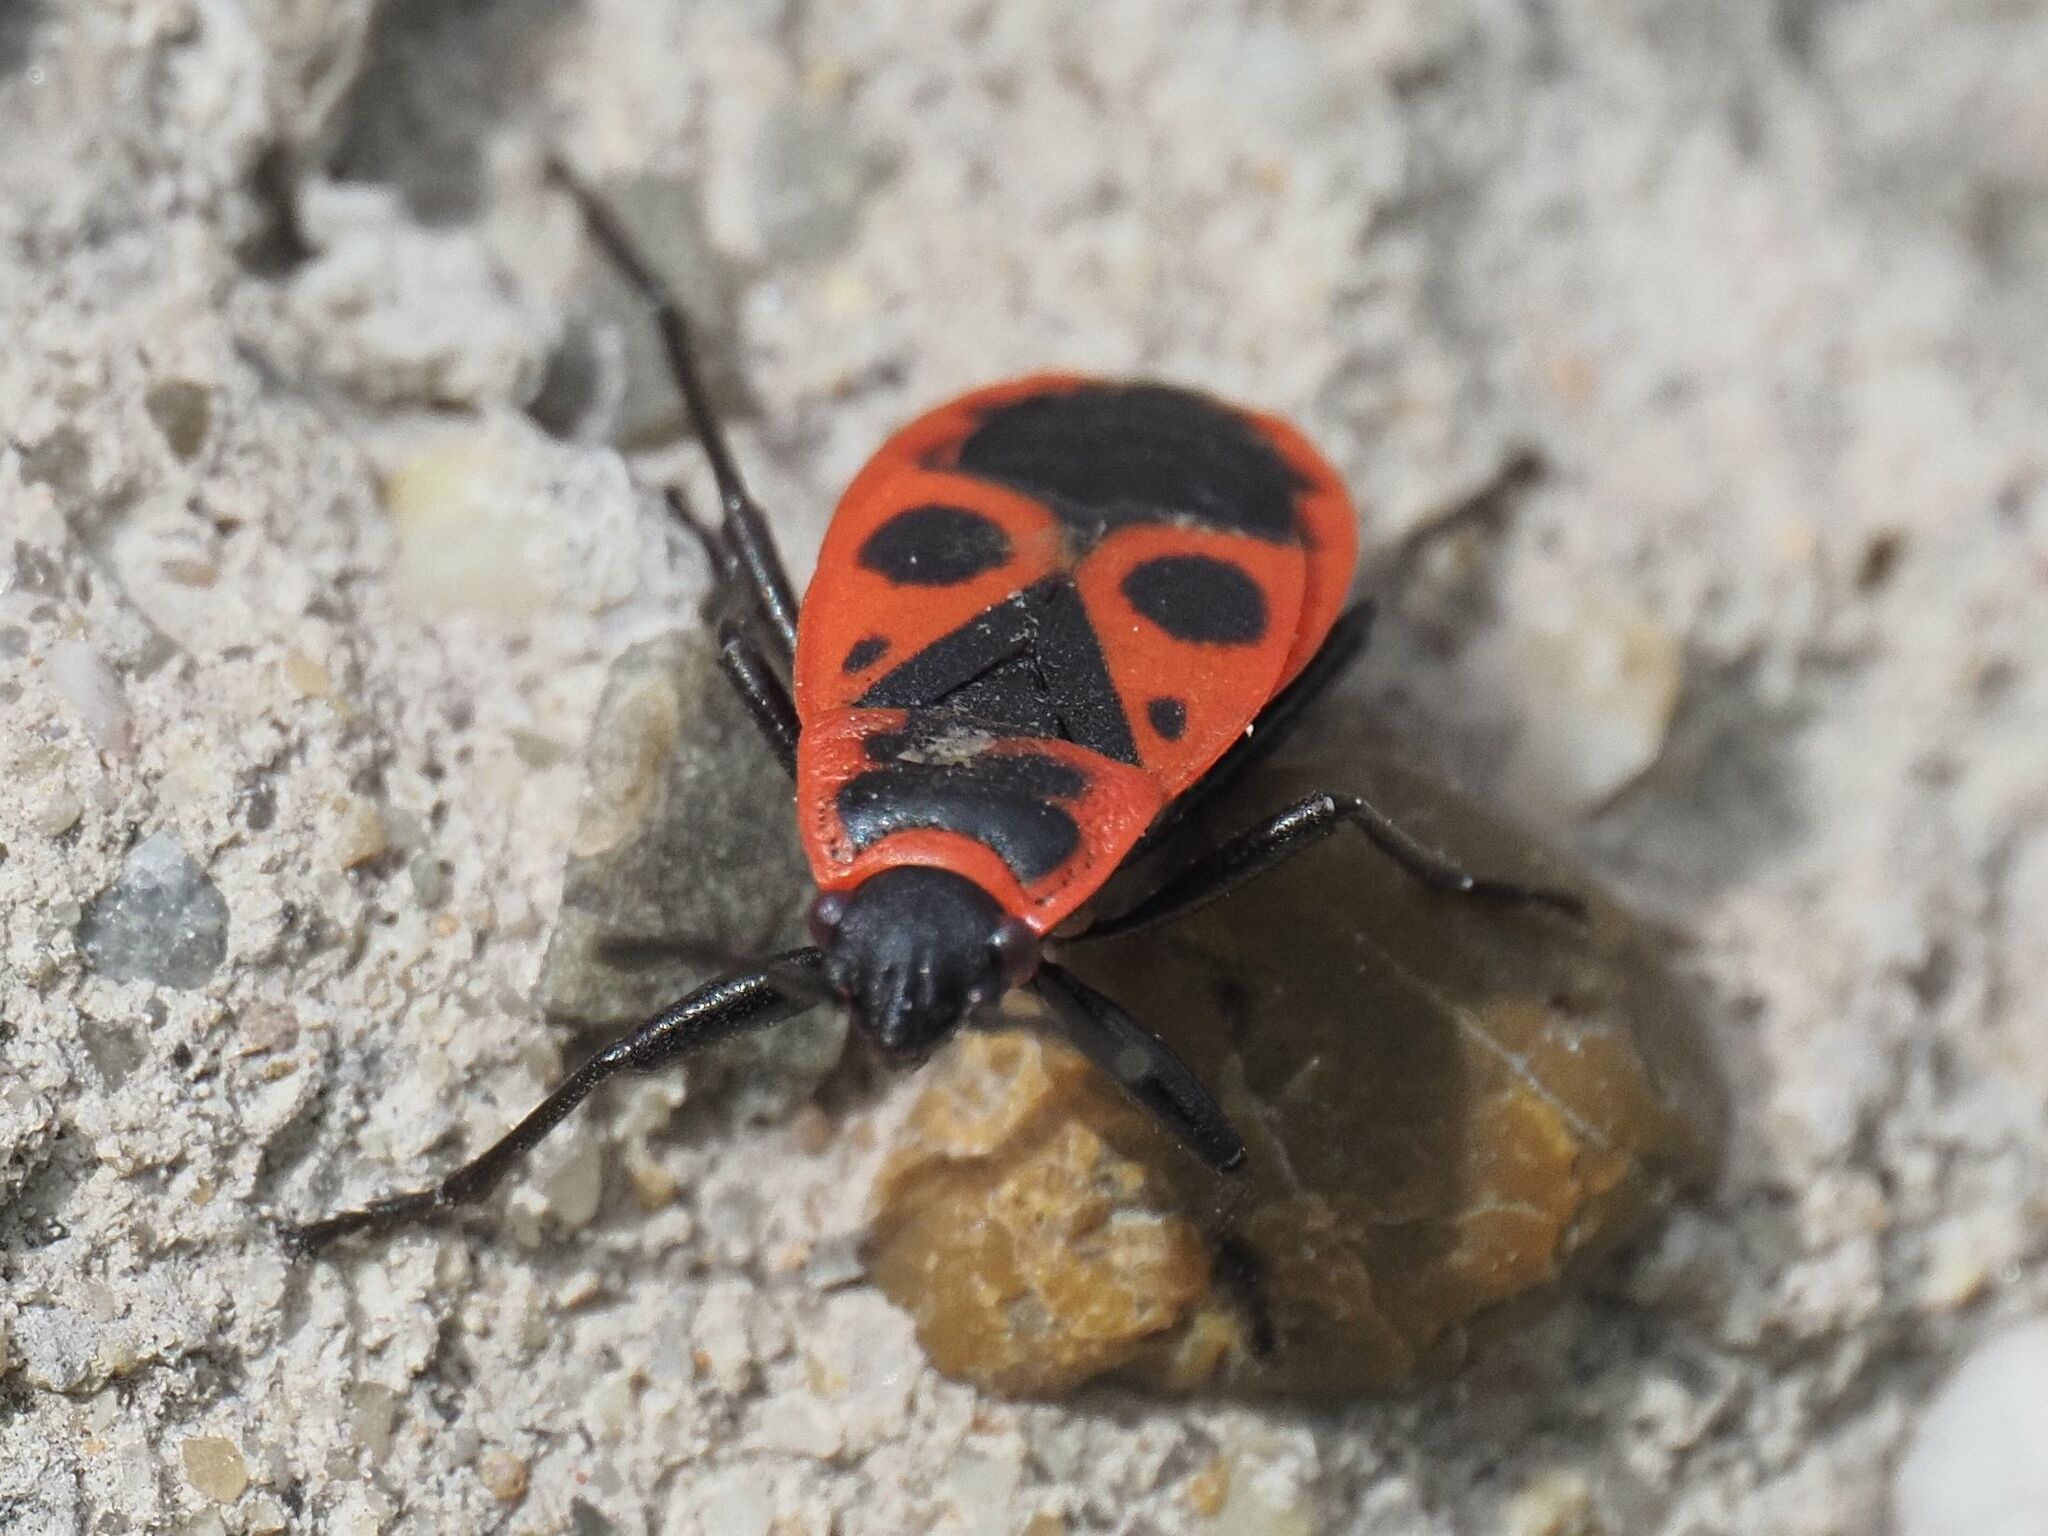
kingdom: Animalia
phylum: Arthropoda
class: Insecta
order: Hemiptera
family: Pyrrhocoridae
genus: Pyrrhocoris
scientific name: Pyrrhocoris apterus
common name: Firebug
